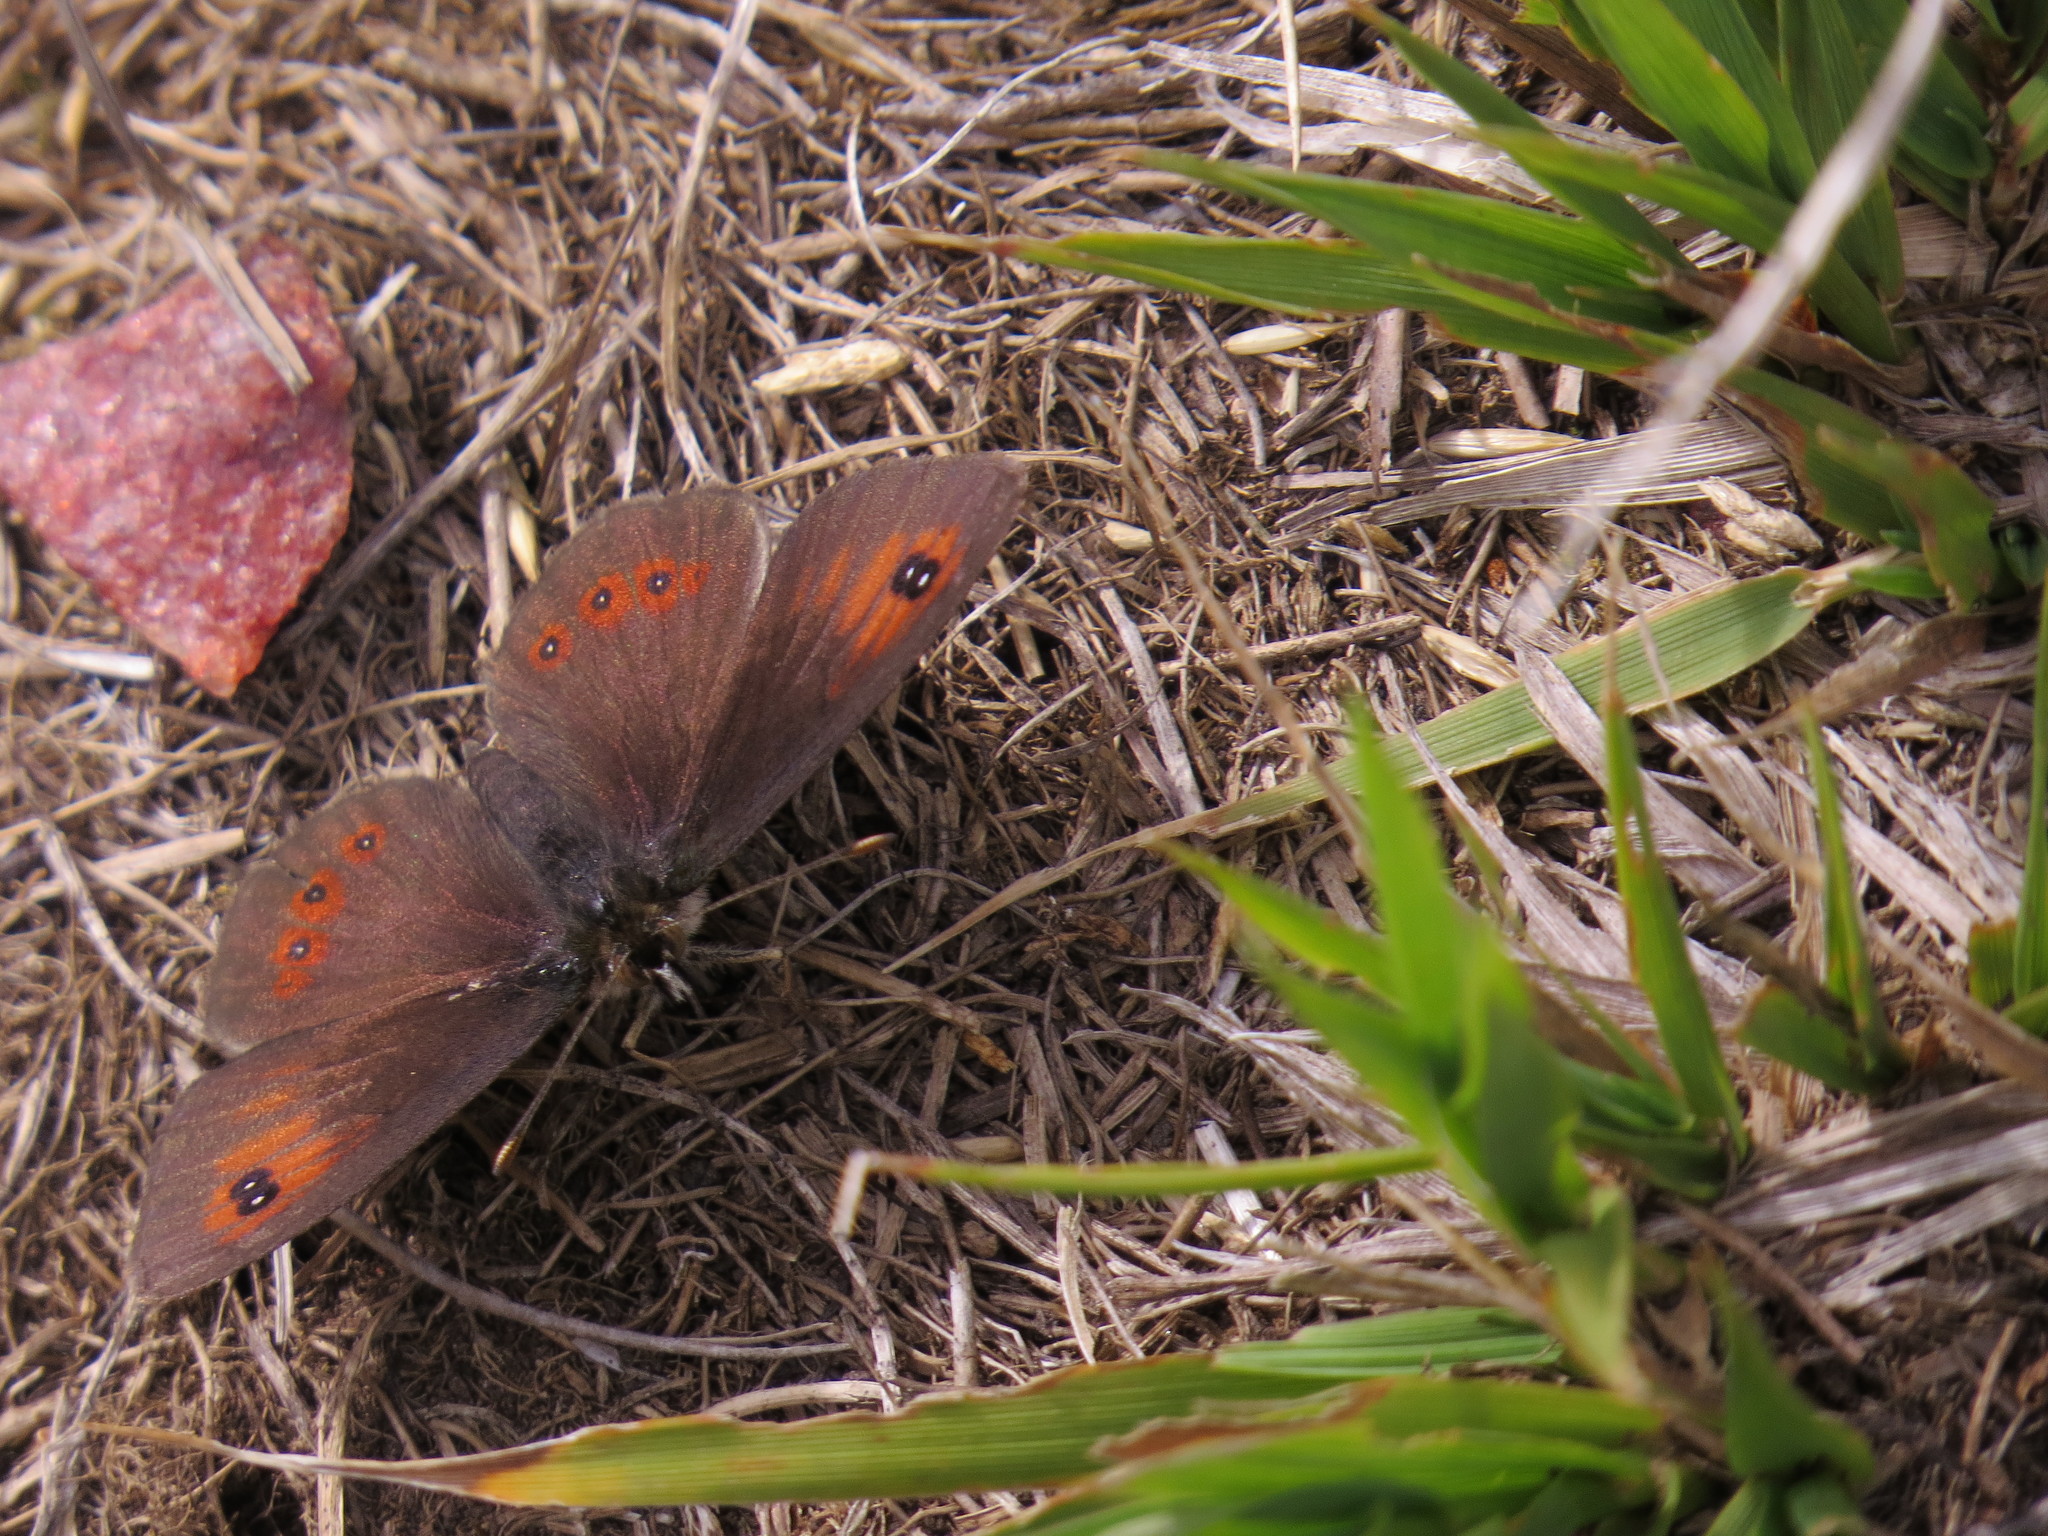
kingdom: Animalia
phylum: Arthropoda
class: Insecta
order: Lepidoptera
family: Nymphalidae
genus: Erebia
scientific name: Erebia cassioides
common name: Common brassy ringlet
